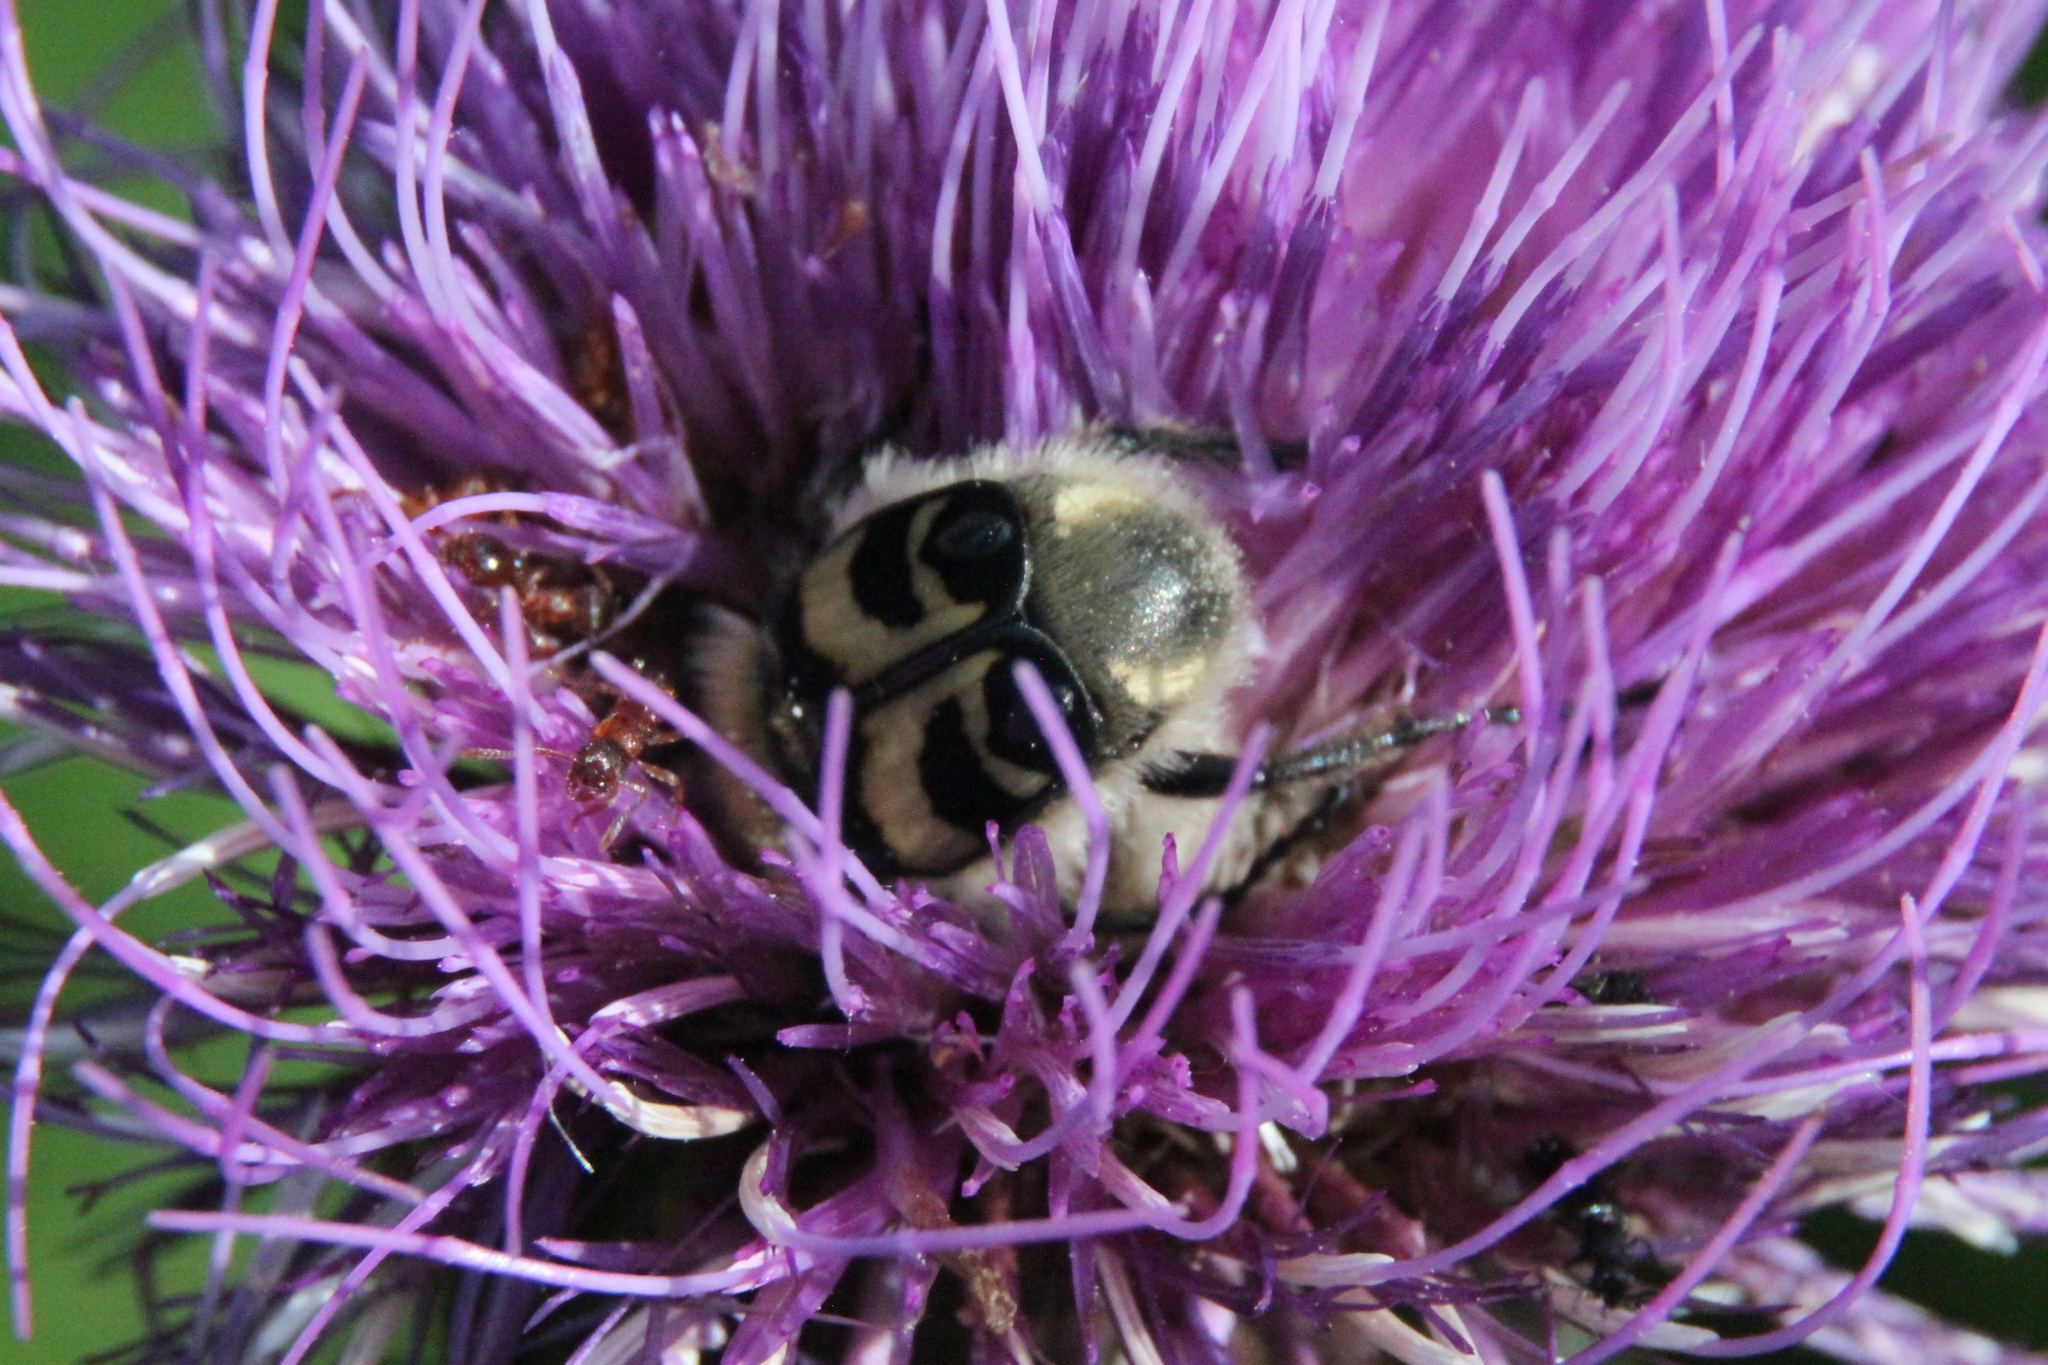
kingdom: Animalia
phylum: Arthropoda
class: Insecta
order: Coleoptera
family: Scarabaeidae
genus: Trichius
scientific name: Trichius fasciatus
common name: Bee beetle
